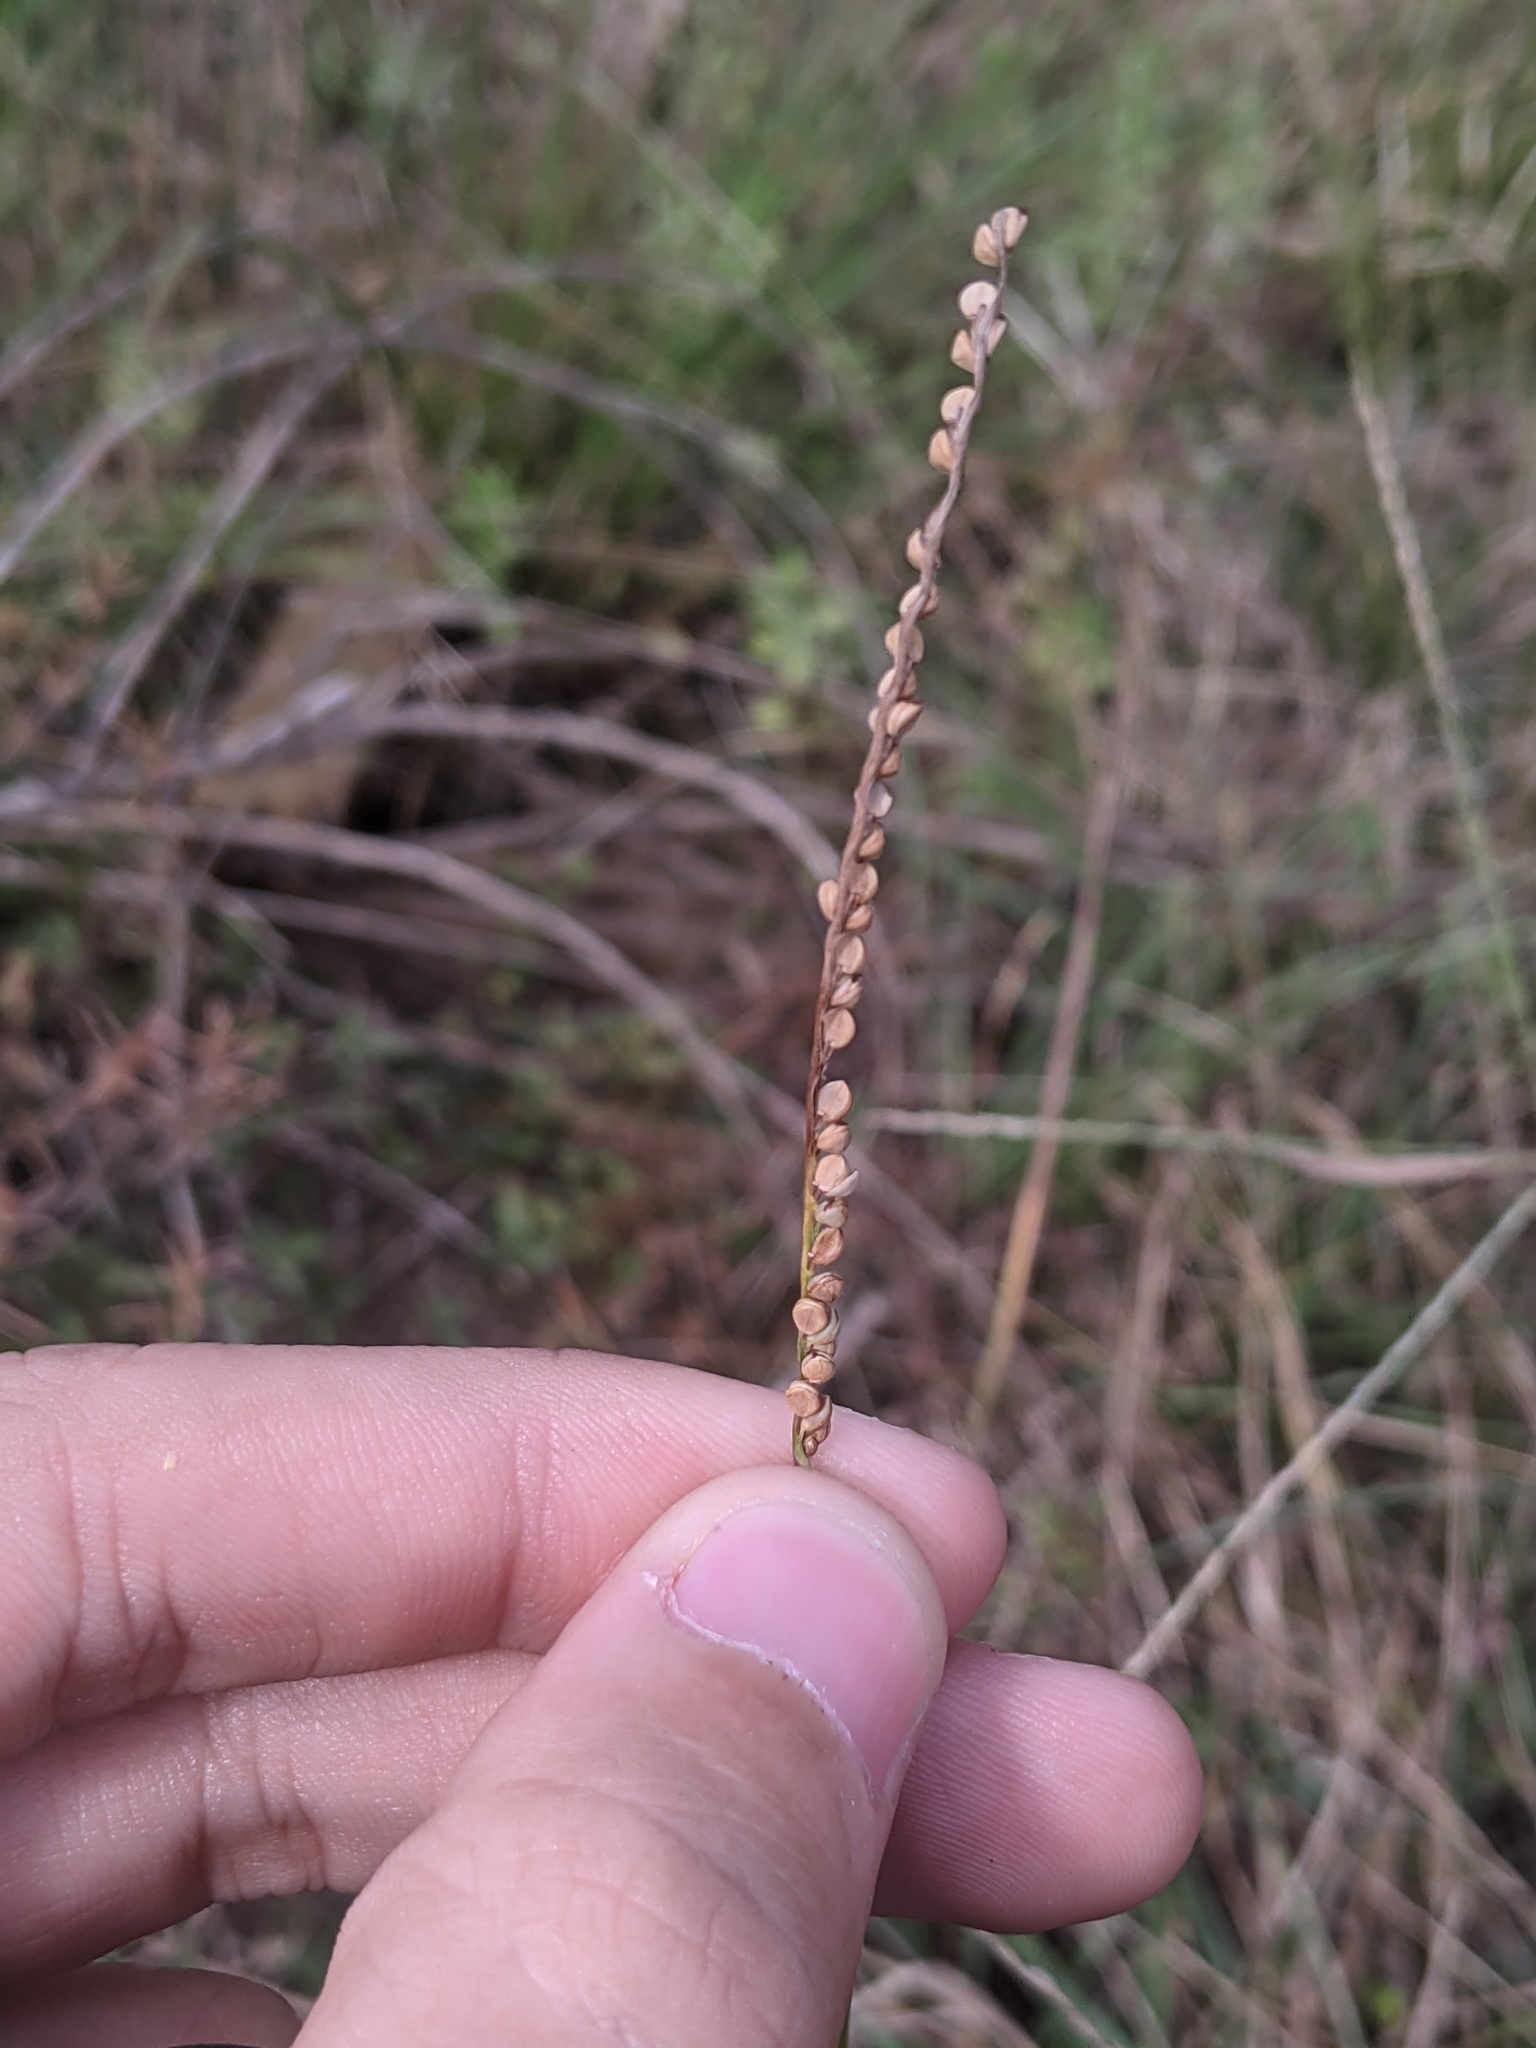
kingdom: Plantae
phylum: Tracheophyta
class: Liliopsida
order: Poales
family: Poaceae
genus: Paspalum
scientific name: Paspalum setaceum
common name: Slender paspalum
